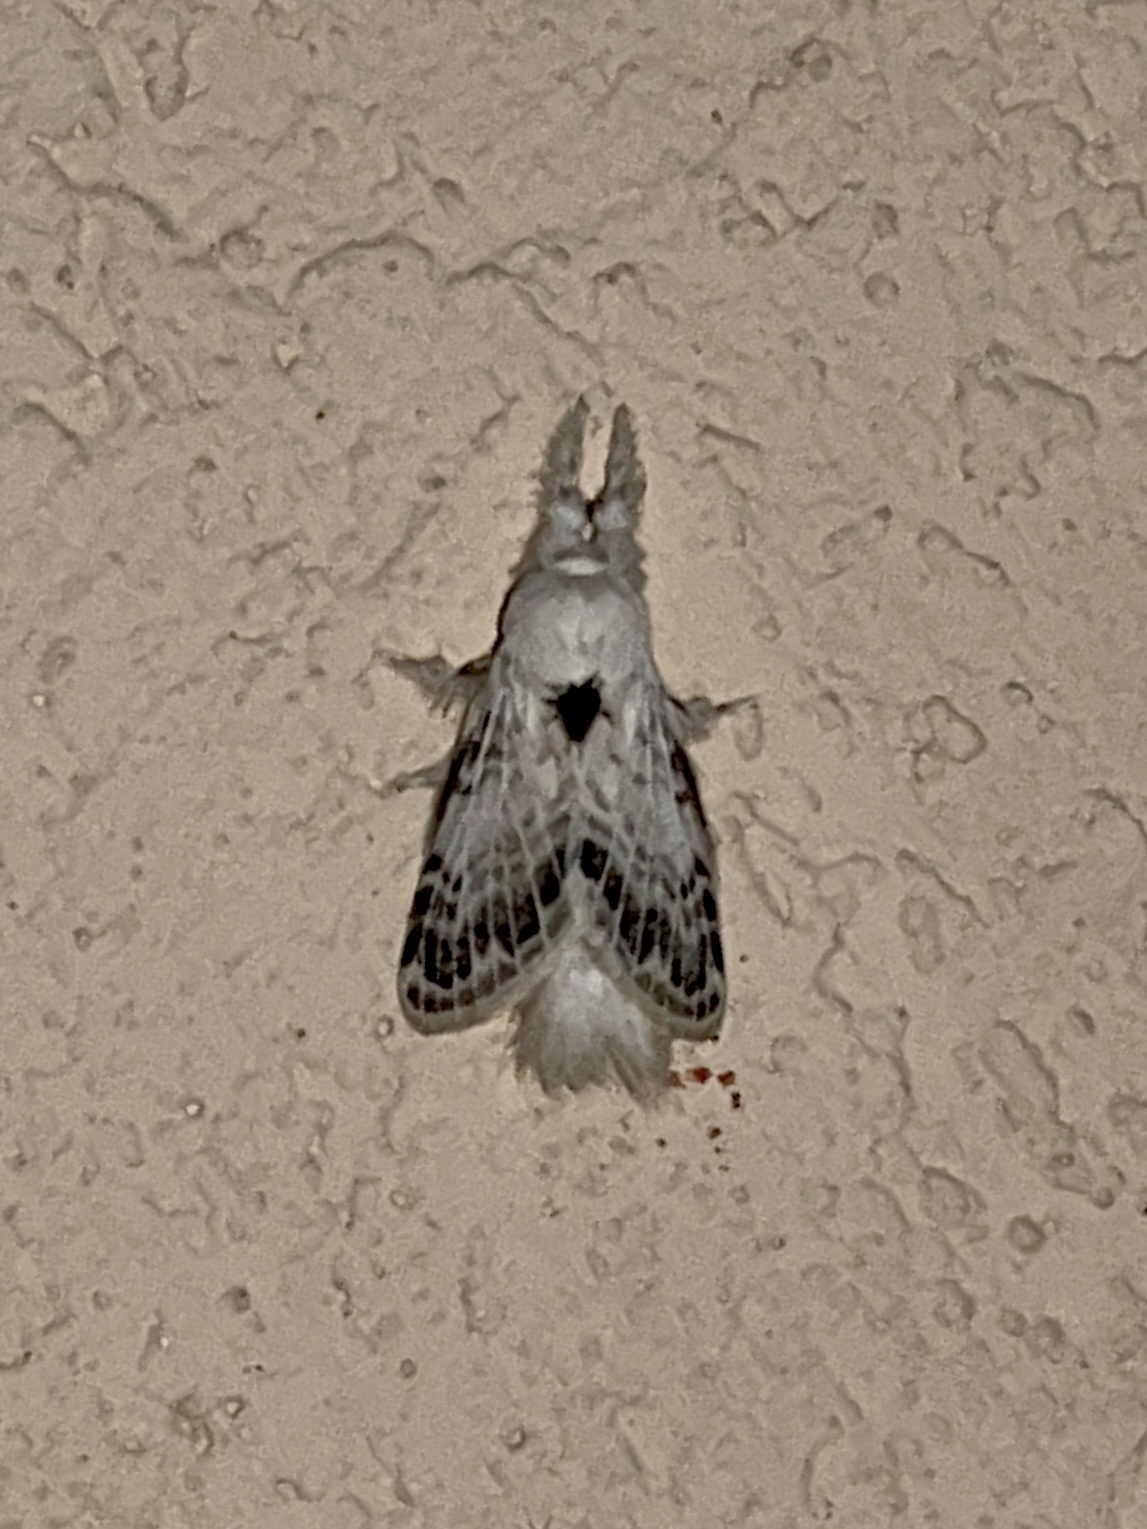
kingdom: Animalia
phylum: Arthropoda
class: Insecta
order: Lepidoptera
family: Lasiocampidae
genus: Apotolype
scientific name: Apotolype brevicrista
